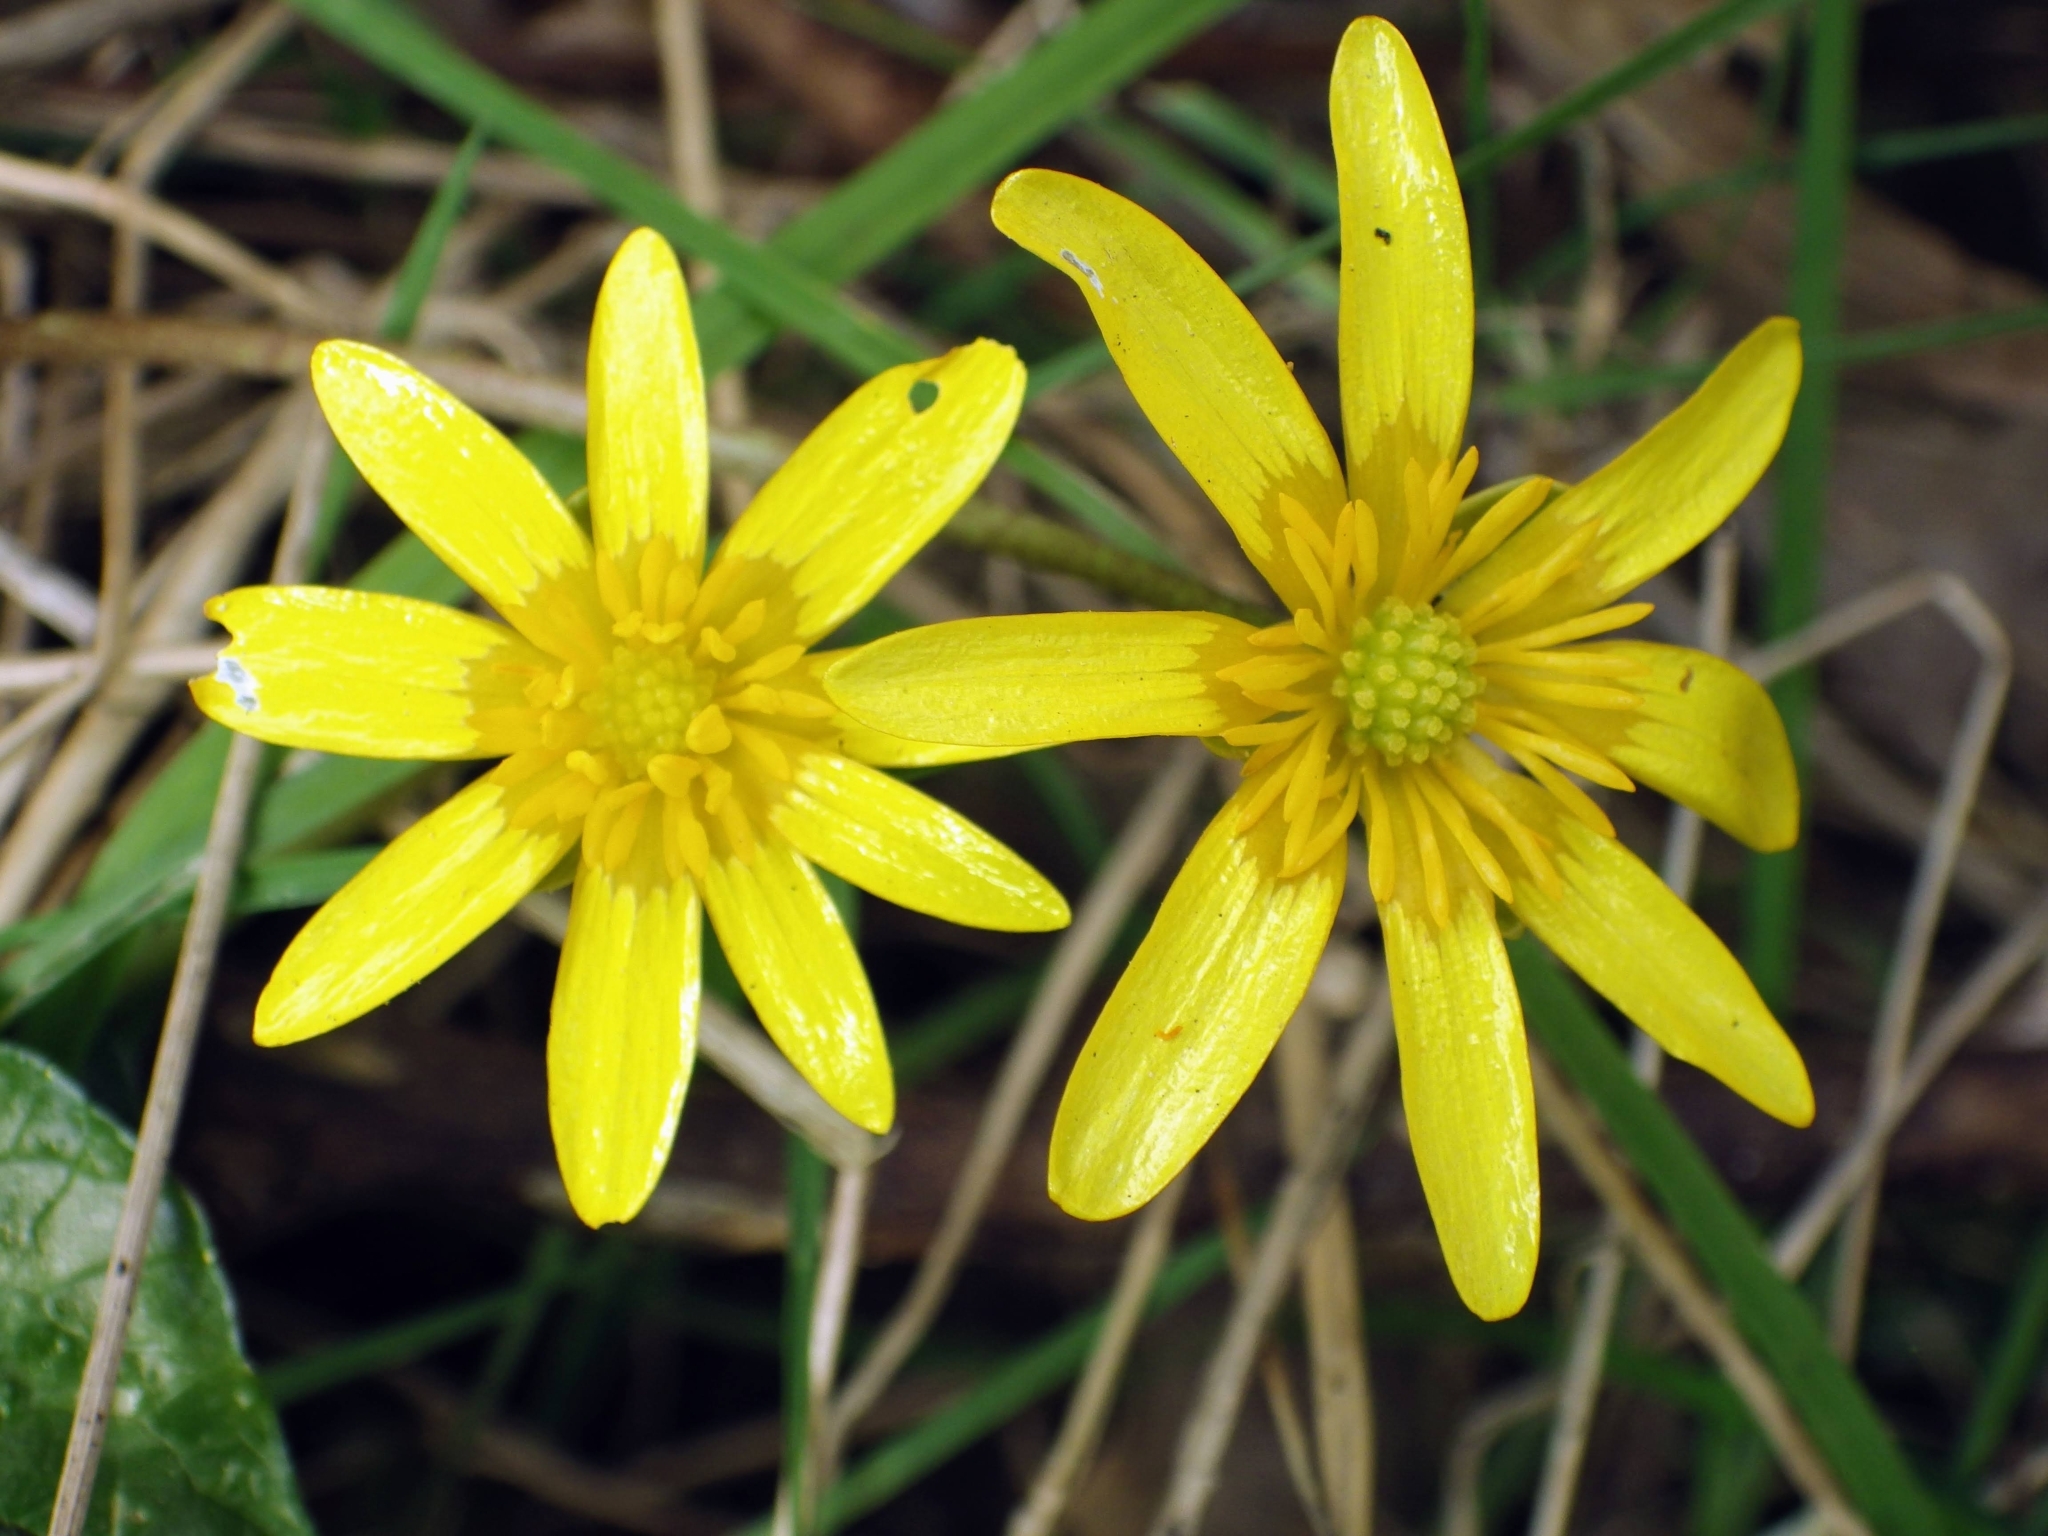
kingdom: Plantae
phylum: Tracheophyta
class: Magnoliopsida
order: Ranunculales
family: Ranunculaceae
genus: Ficaria
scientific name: Ficaria verna
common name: Lesser celandine
